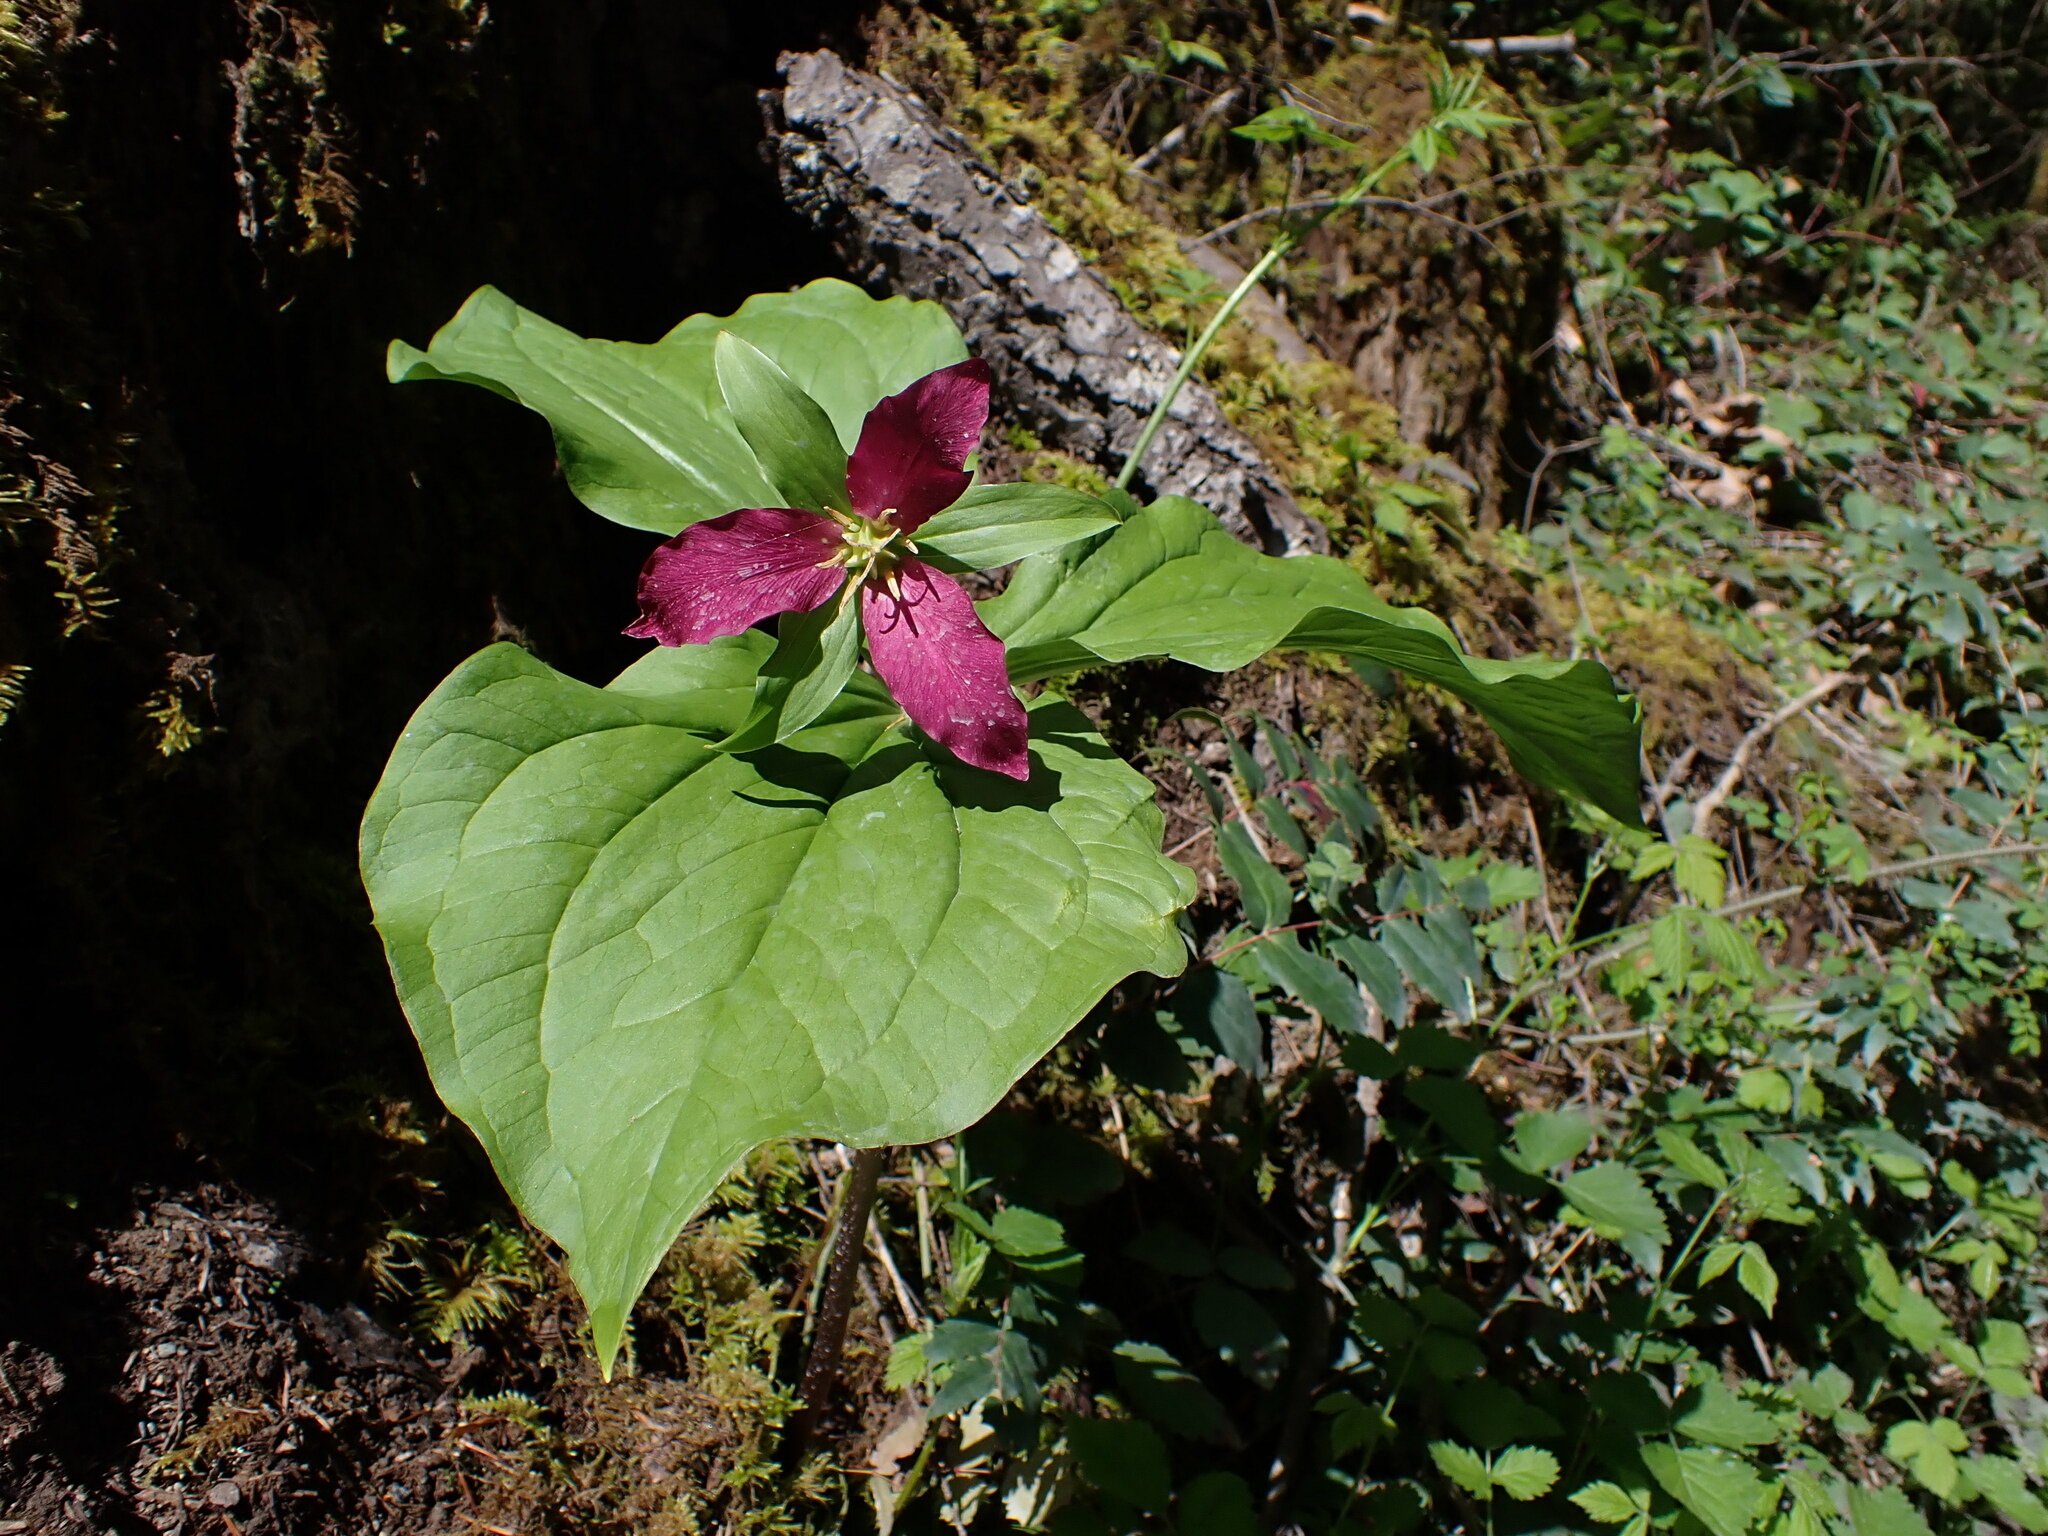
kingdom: Plantae
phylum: Tracheophyta
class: Liliopsida
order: Liliales
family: Melanthiaceae
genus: Trillium
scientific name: Trillium ovatum
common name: Pacific trillium
